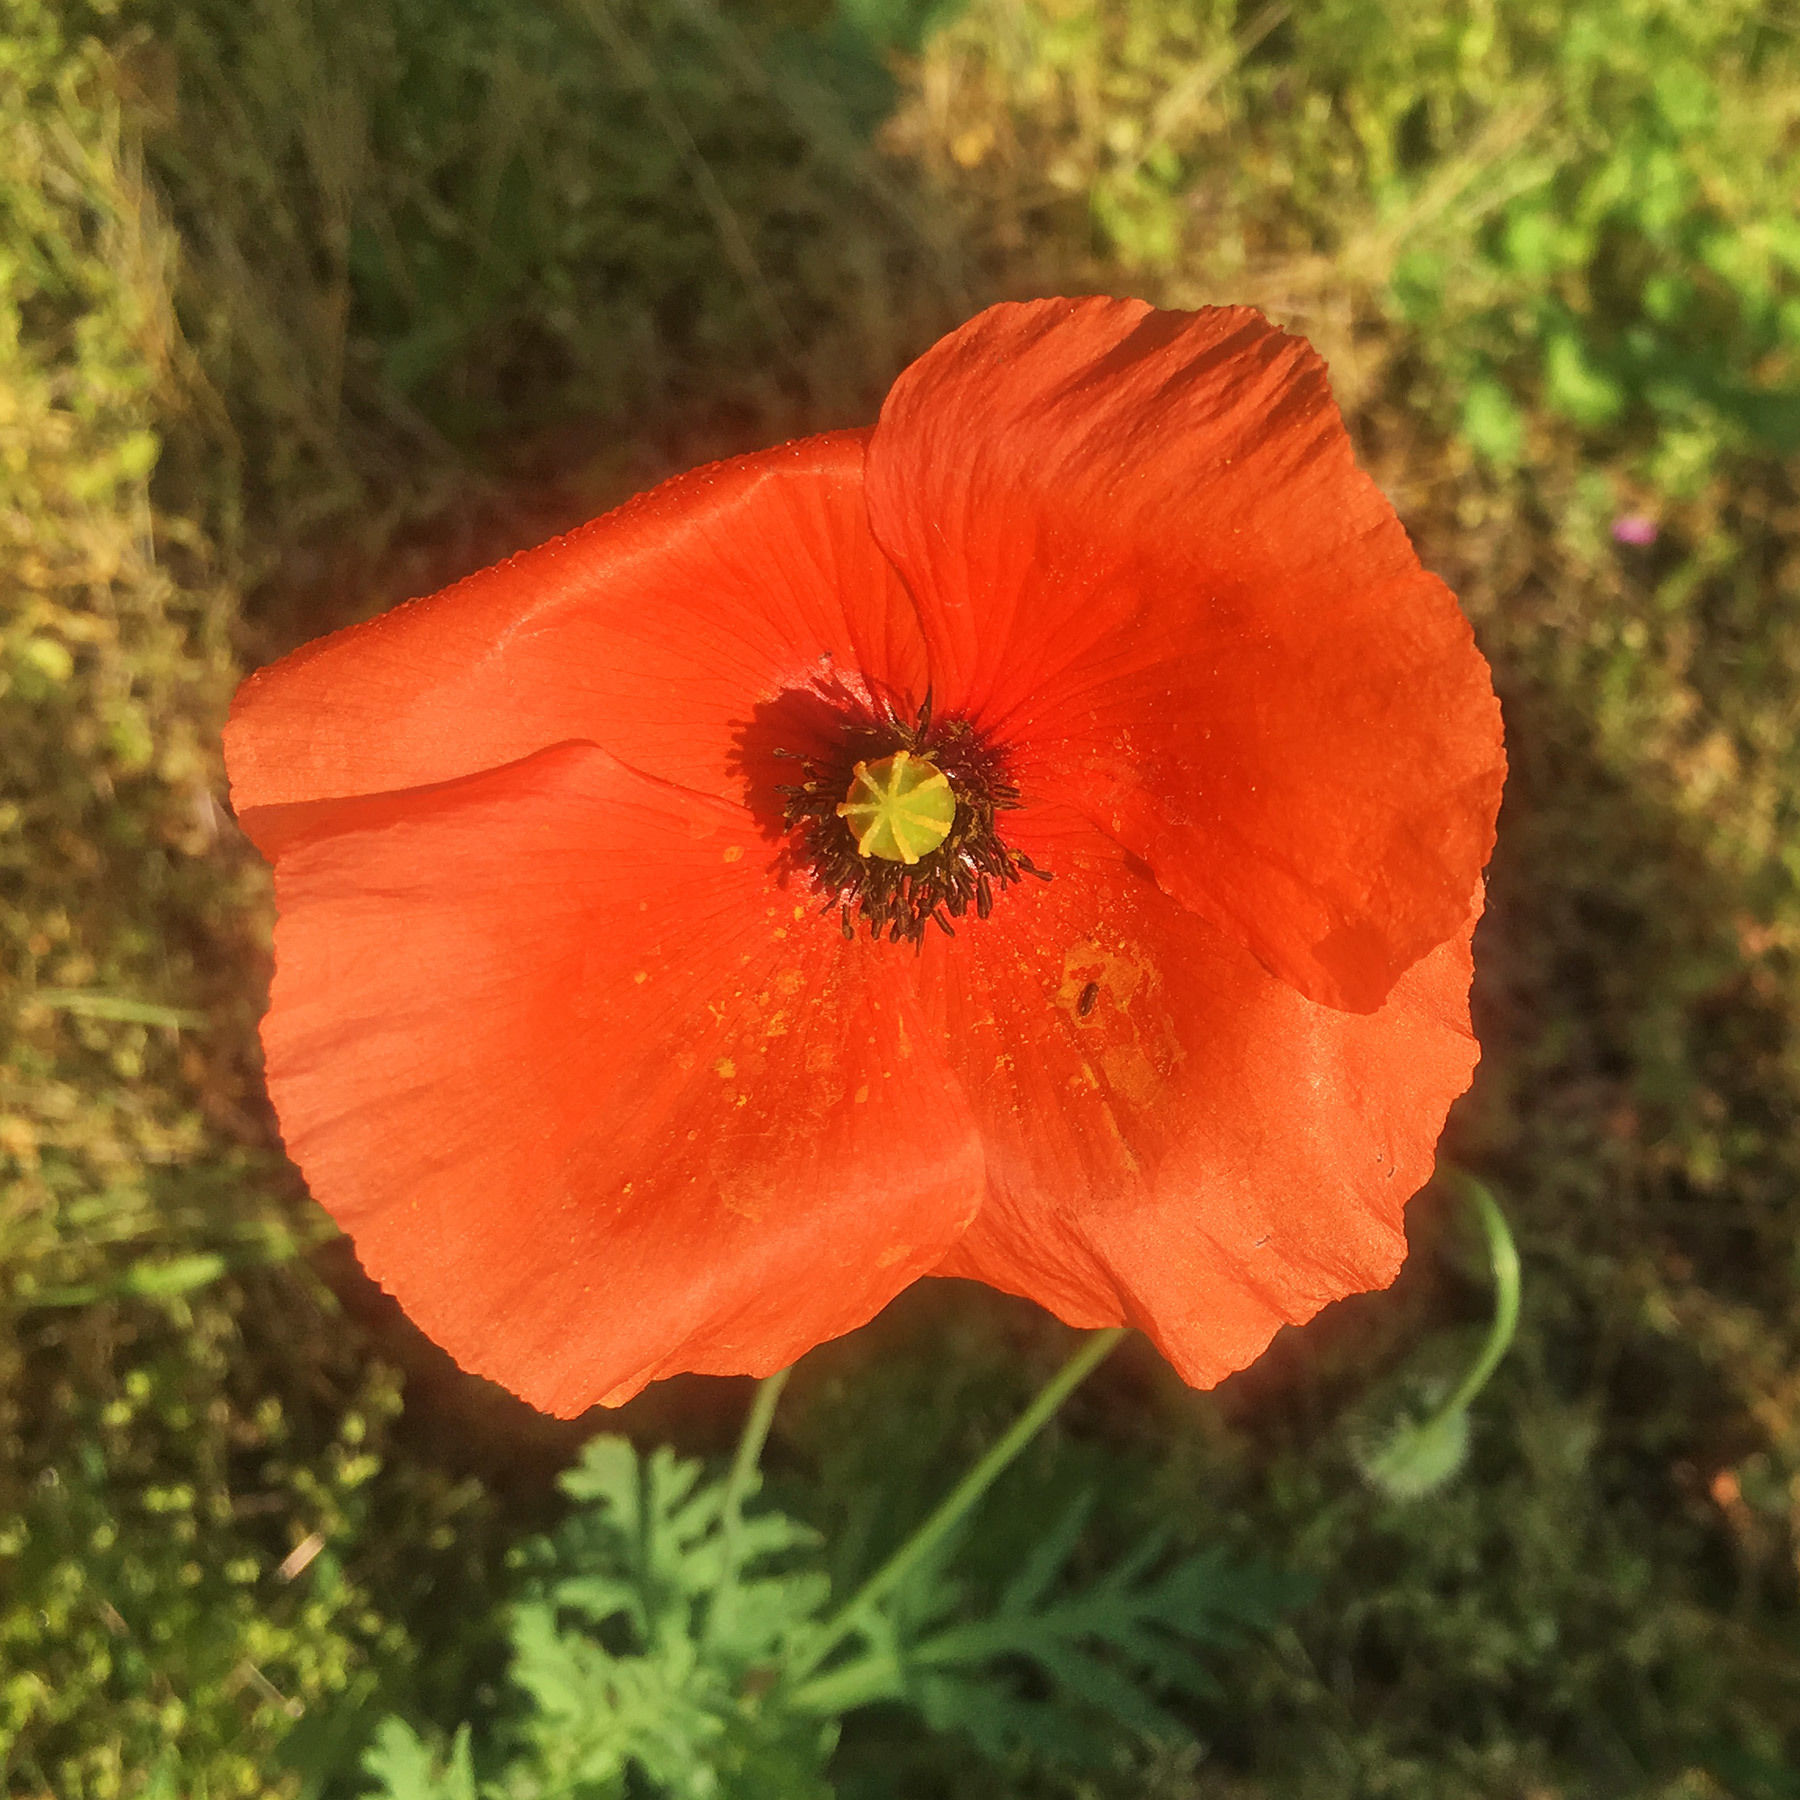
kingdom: Plantae
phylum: Tracheophyta
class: Magnoliopsida
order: Ranunculales
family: Papaveraceae
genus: Papaver
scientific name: Papaver dubium
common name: Long-headed poppy
